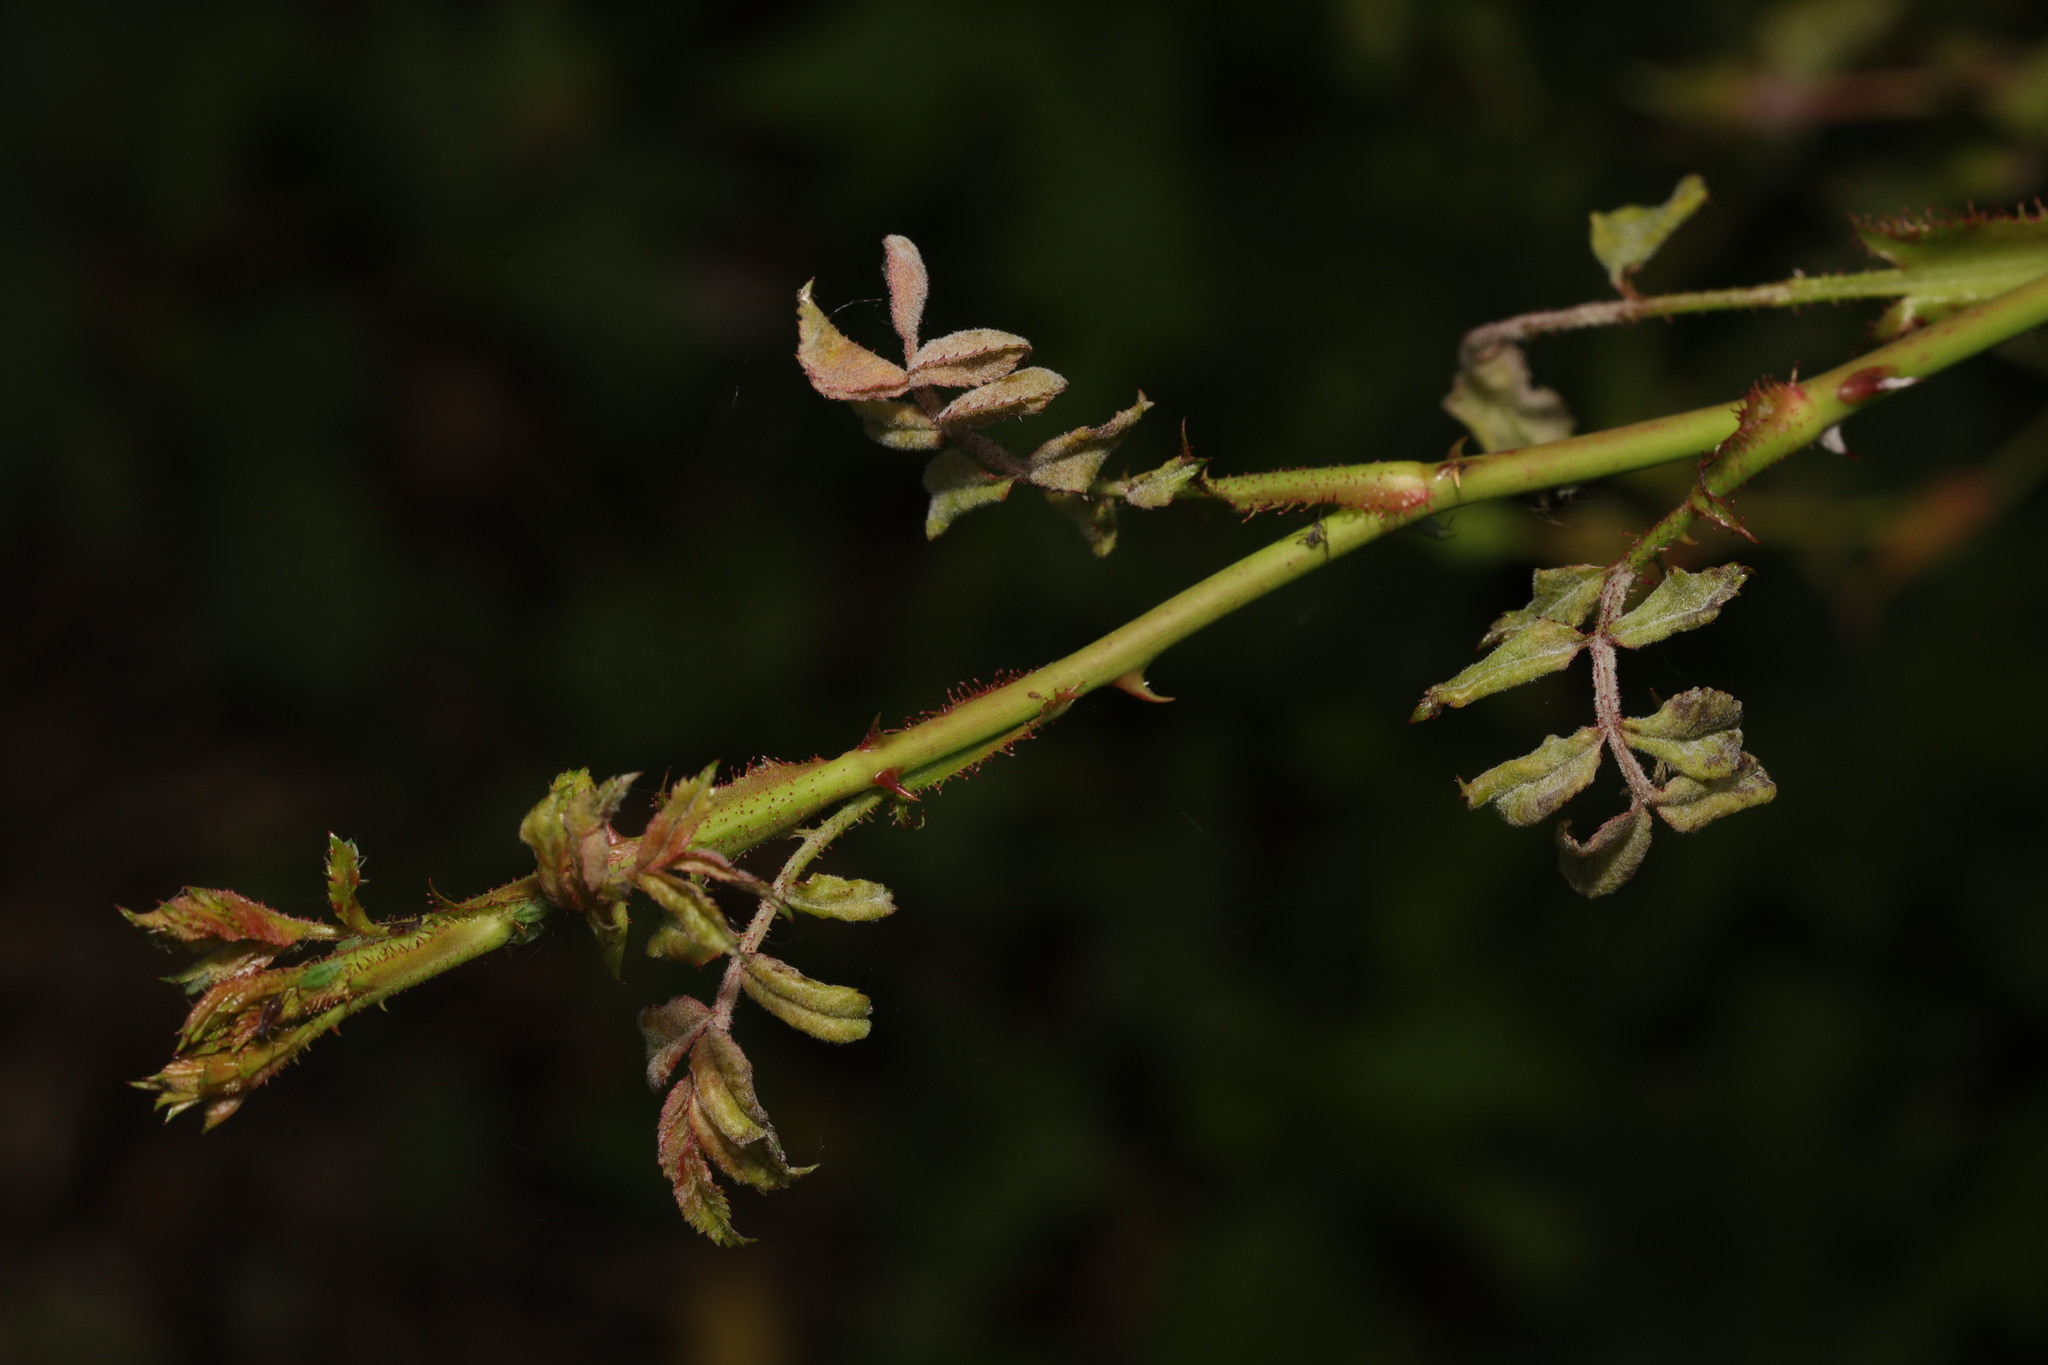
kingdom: Fungi
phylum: Ascomycota
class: Leotiomycetes
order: Helotiales
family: Erysiphaceae
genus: Podosphaera
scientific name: Podosphaera pannosa
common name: Rose mildew
